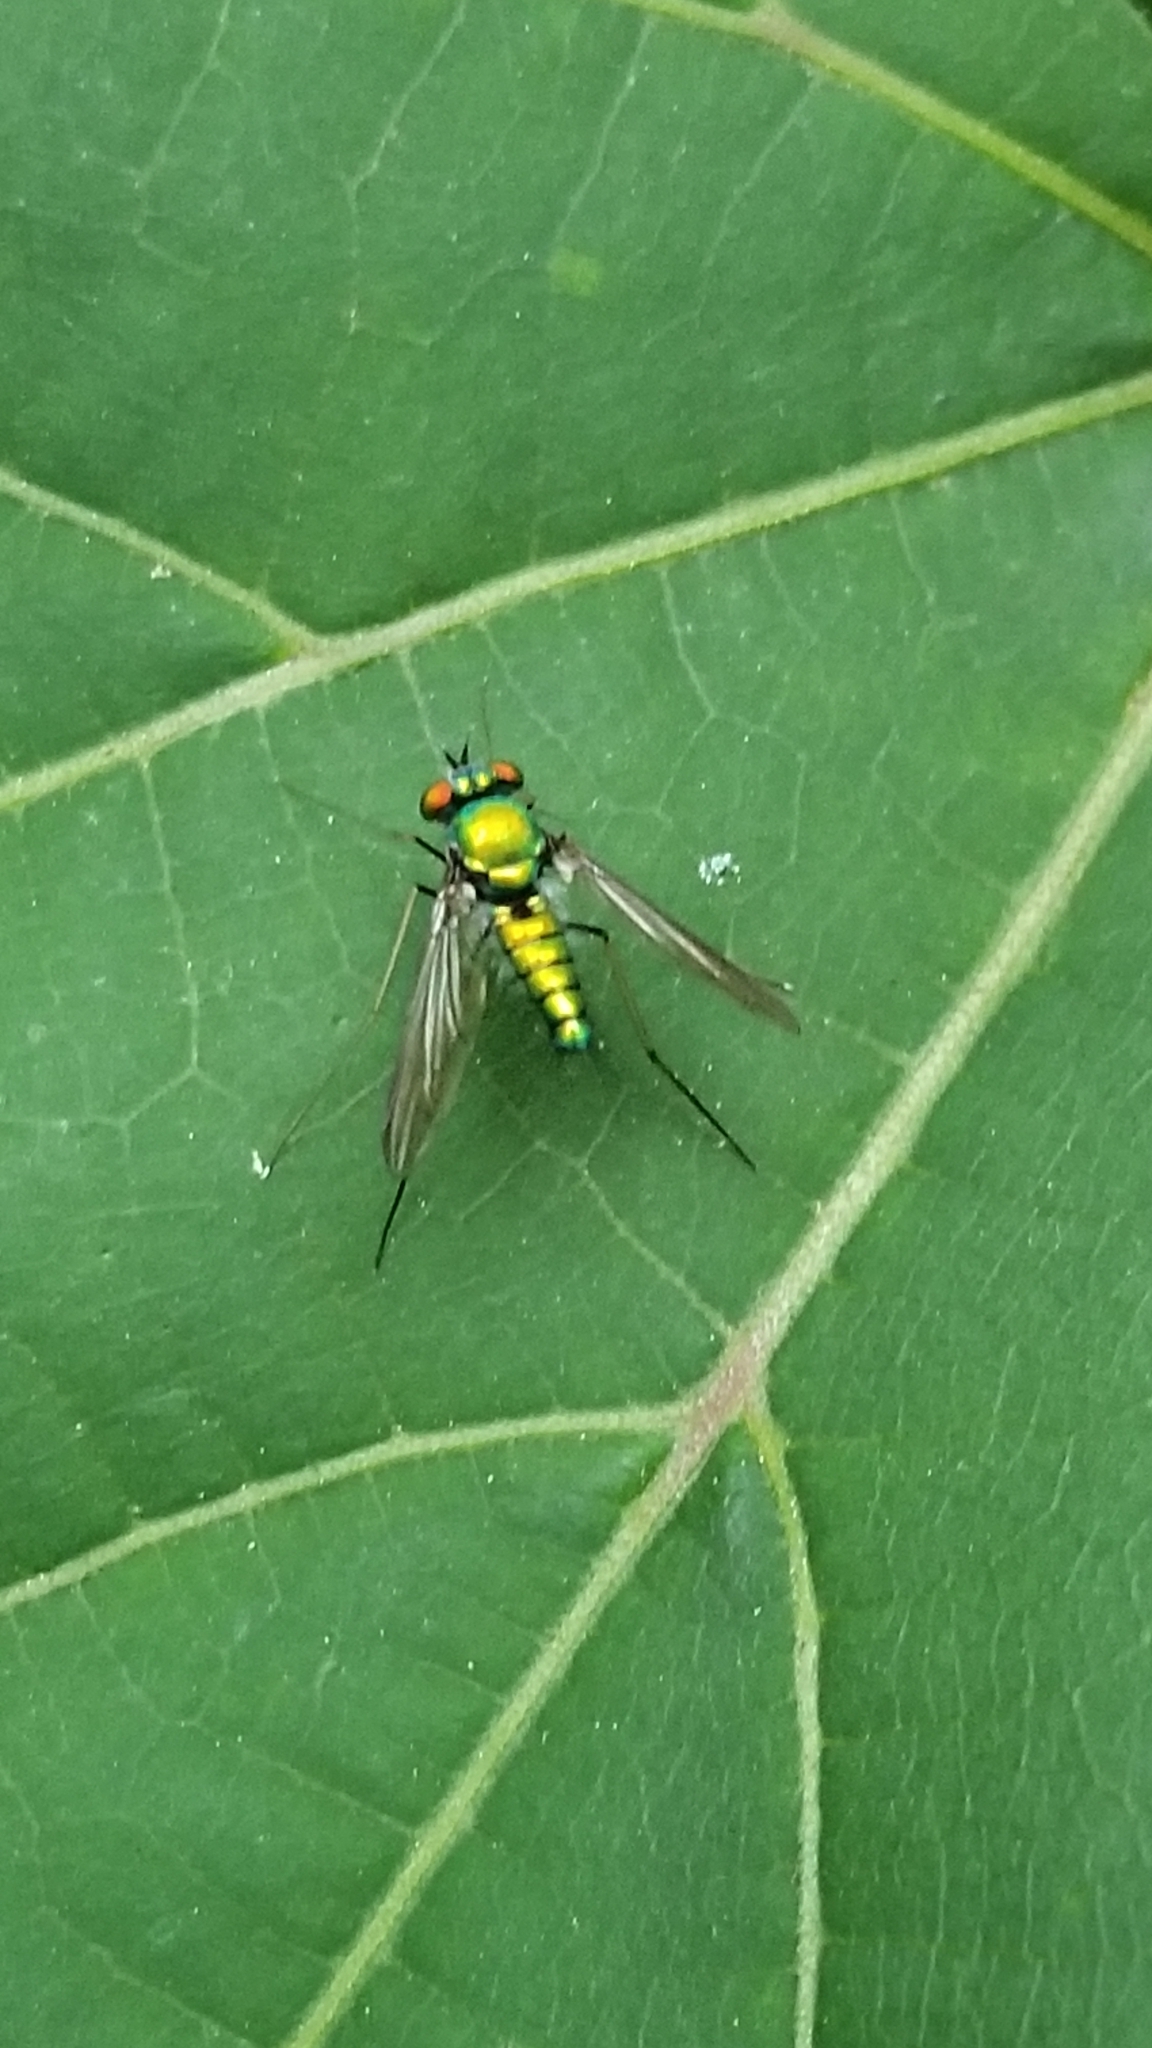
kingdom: Animalia
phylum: Arthropoda
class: Insecta
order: Diptera
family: Dolichopodidae
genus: Condylostylus
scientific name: Condylostylus comatus
